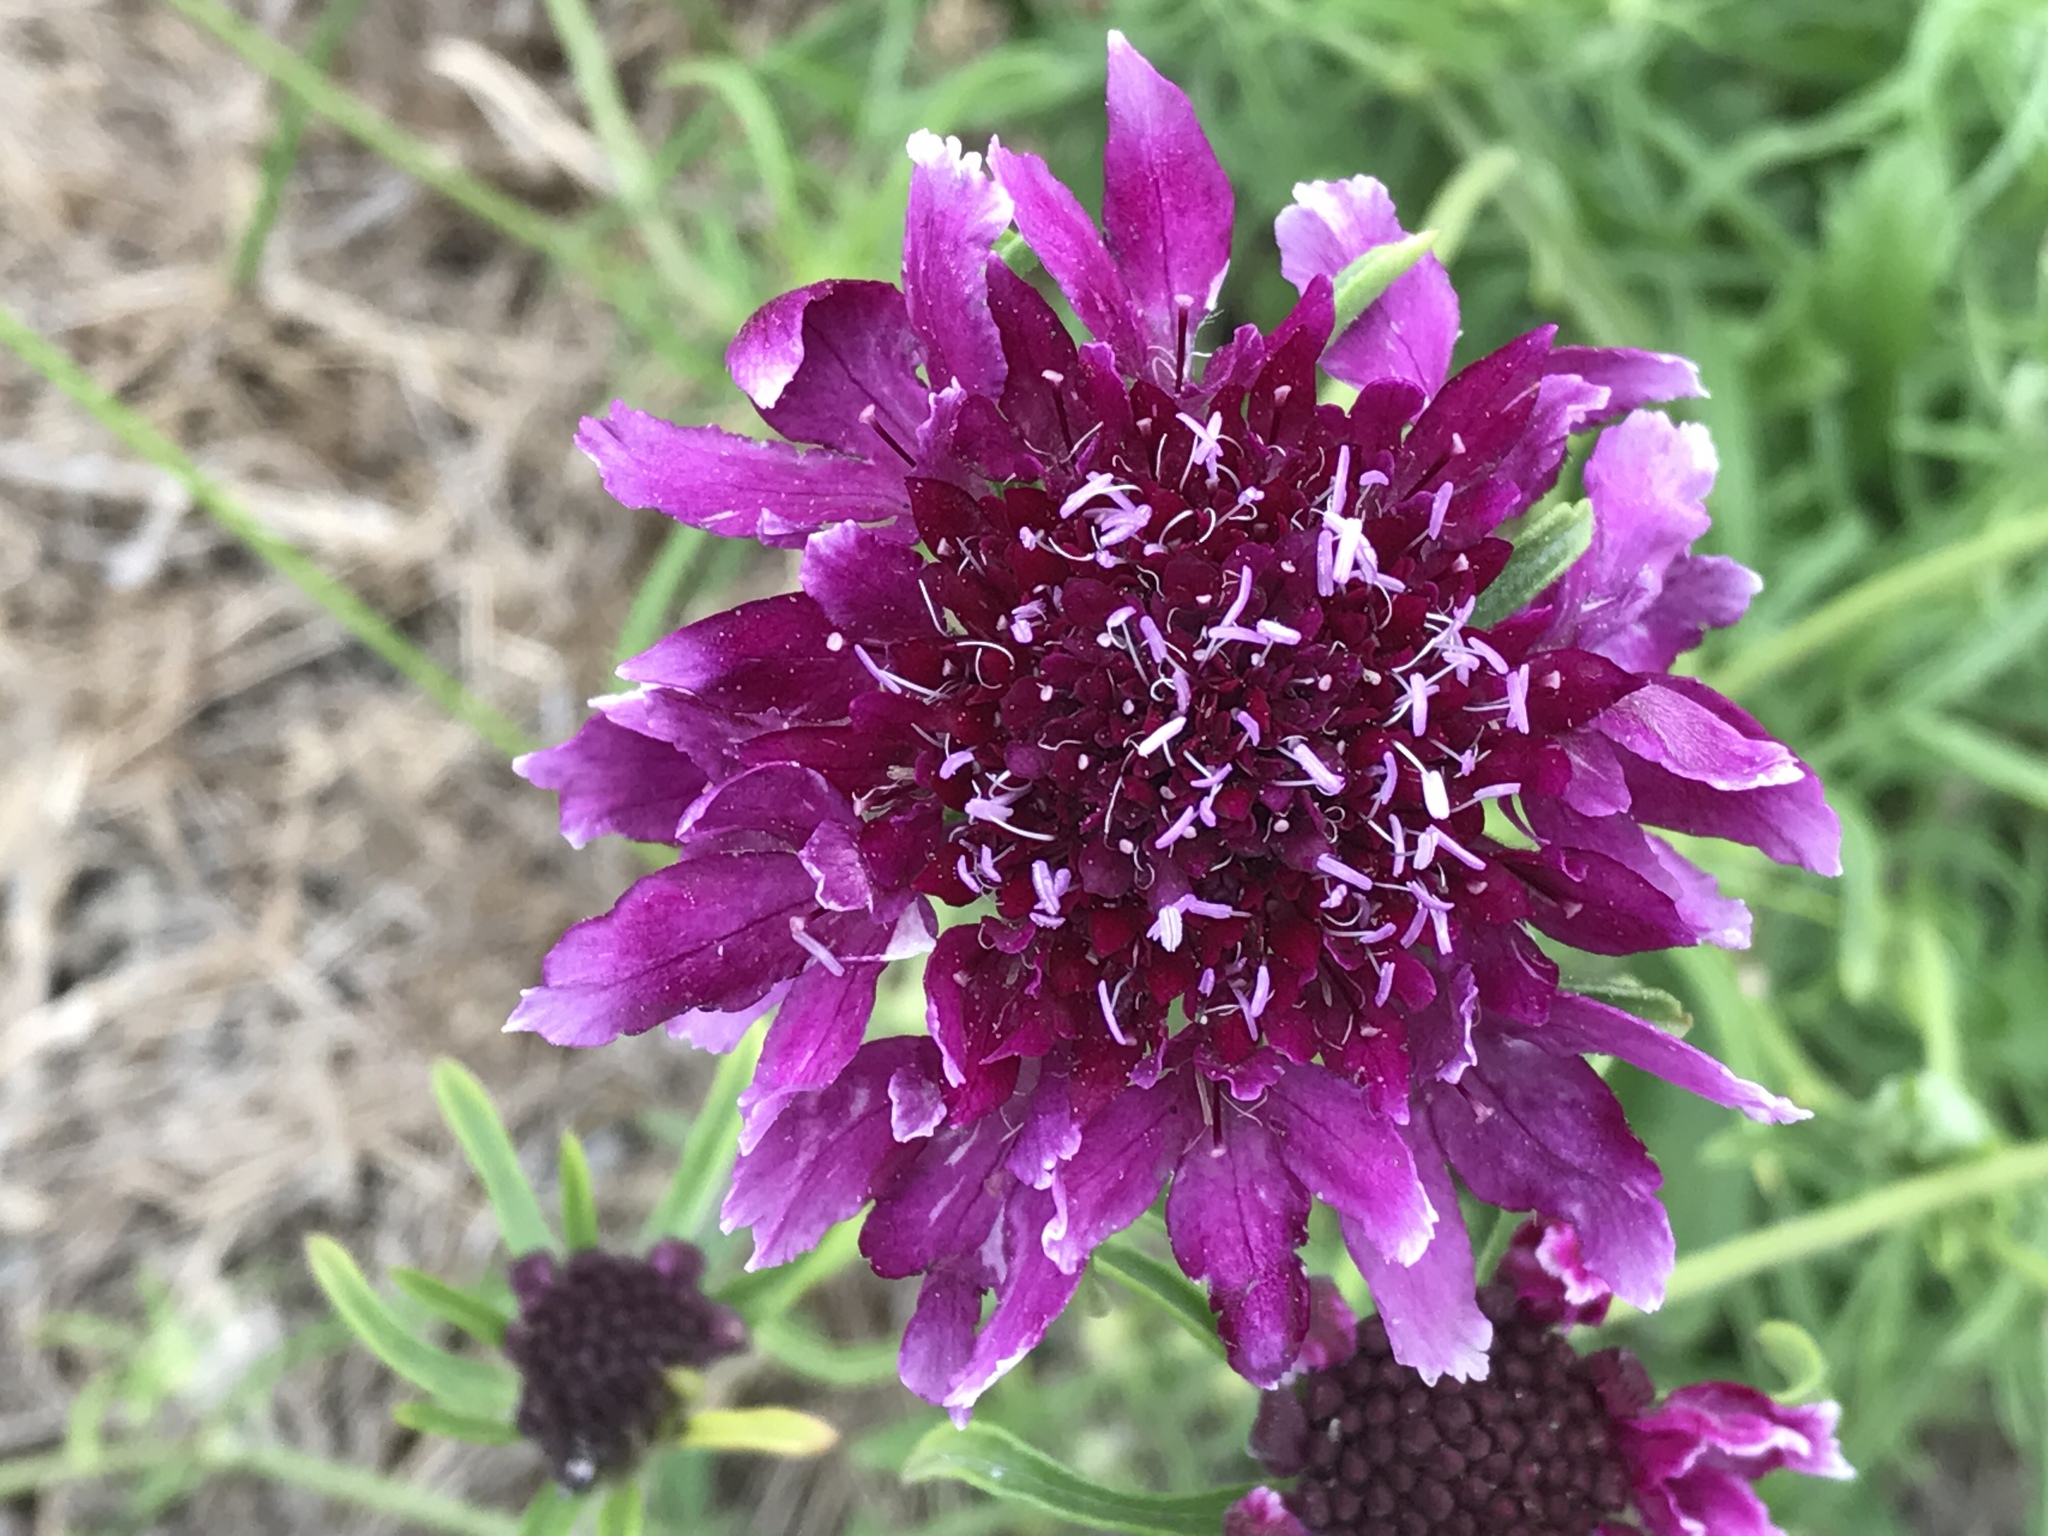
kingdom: Plantae
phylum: Tracheophyta
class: Magnoliopsida
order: Dipsacales
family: Caprifoliaceae
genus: Sixalix
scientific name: Sixalix atropurpurea
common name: Sweet scabious
